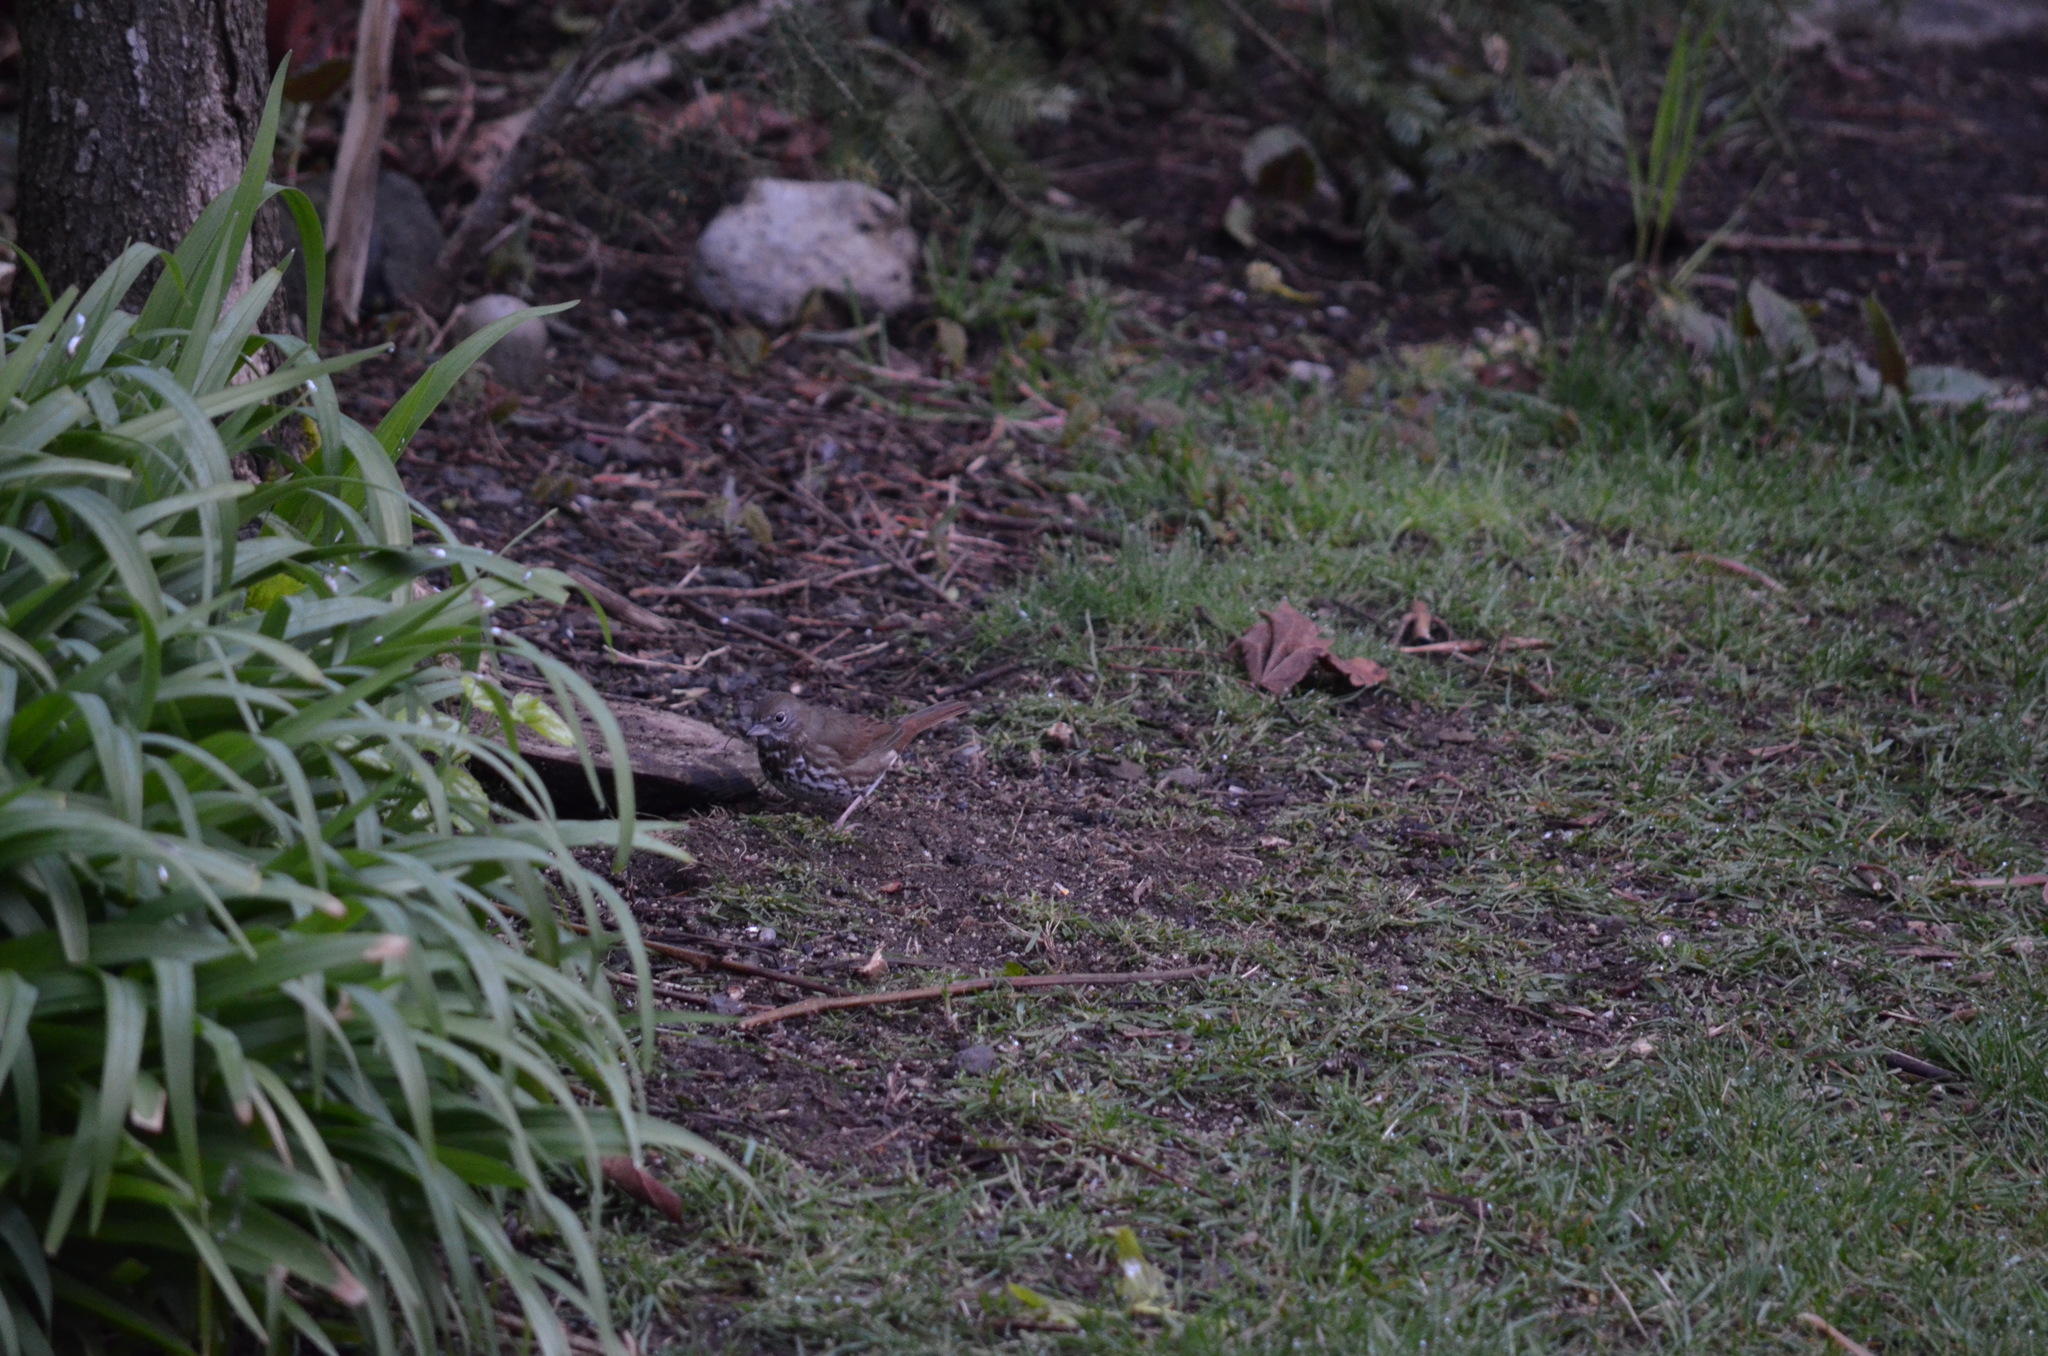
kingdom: Animalia
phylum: Chordata
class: Aves
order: Passeriformes
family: Passerellidae
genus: Passerella
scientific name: Passerella iliaca
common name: Fox sparrow
